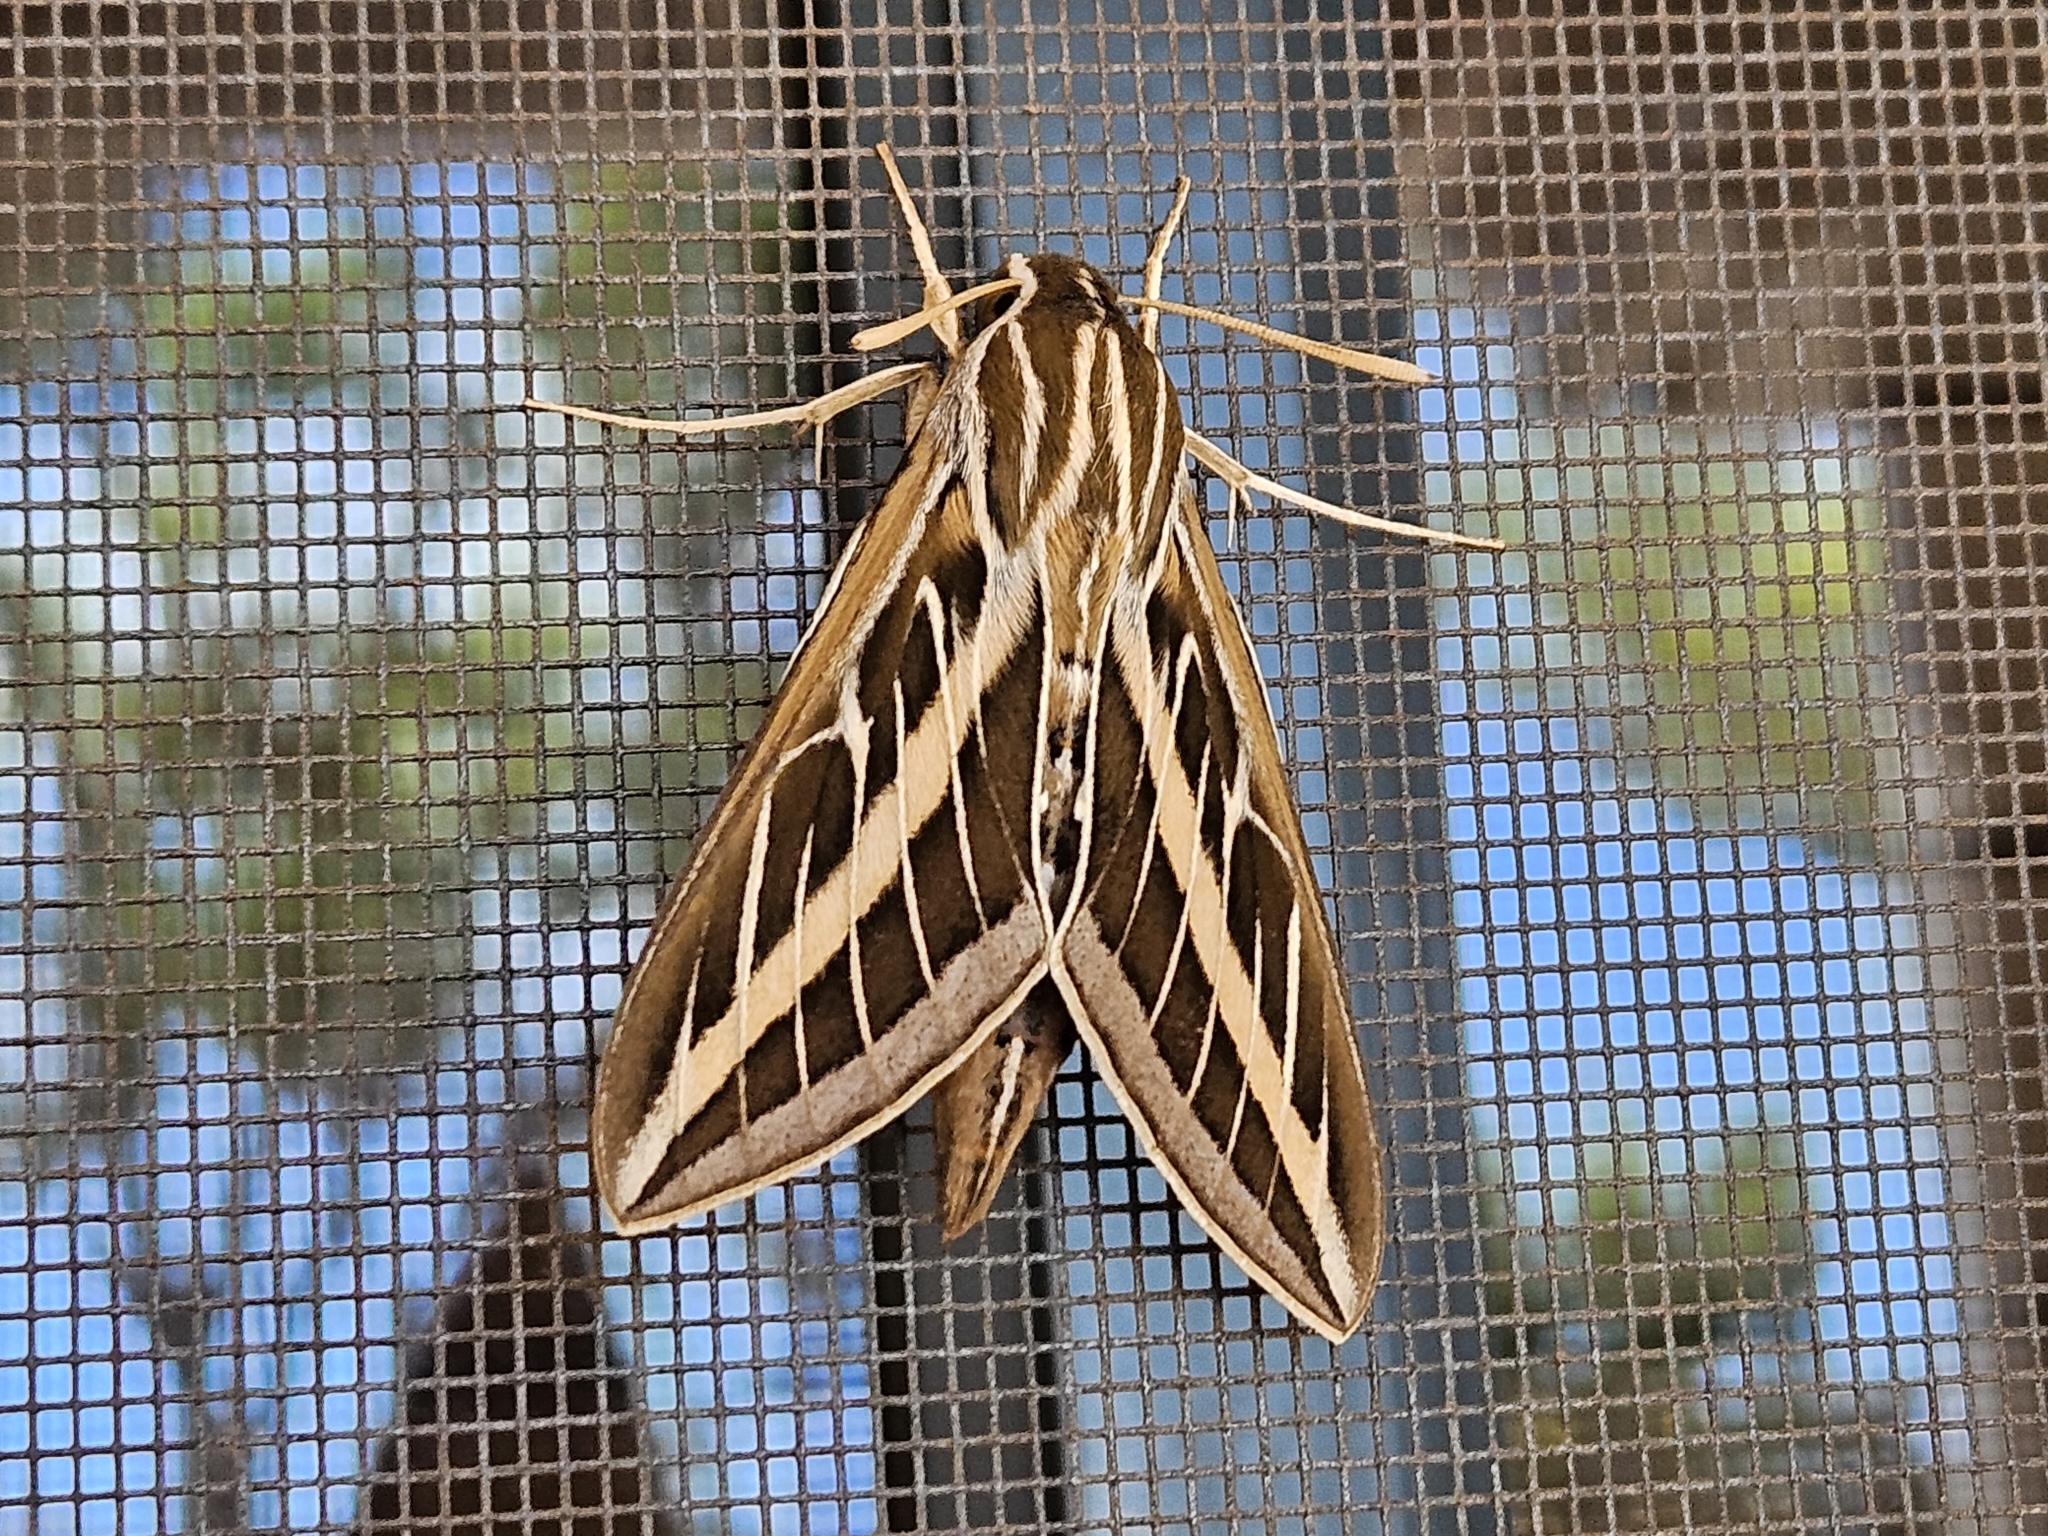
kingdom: Animalia
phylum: Arthropoda
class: Insecta
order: Lepidoptera
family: Sphingidae
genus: Hyles
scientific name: Hyles lineata
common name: White-lined sphinx
